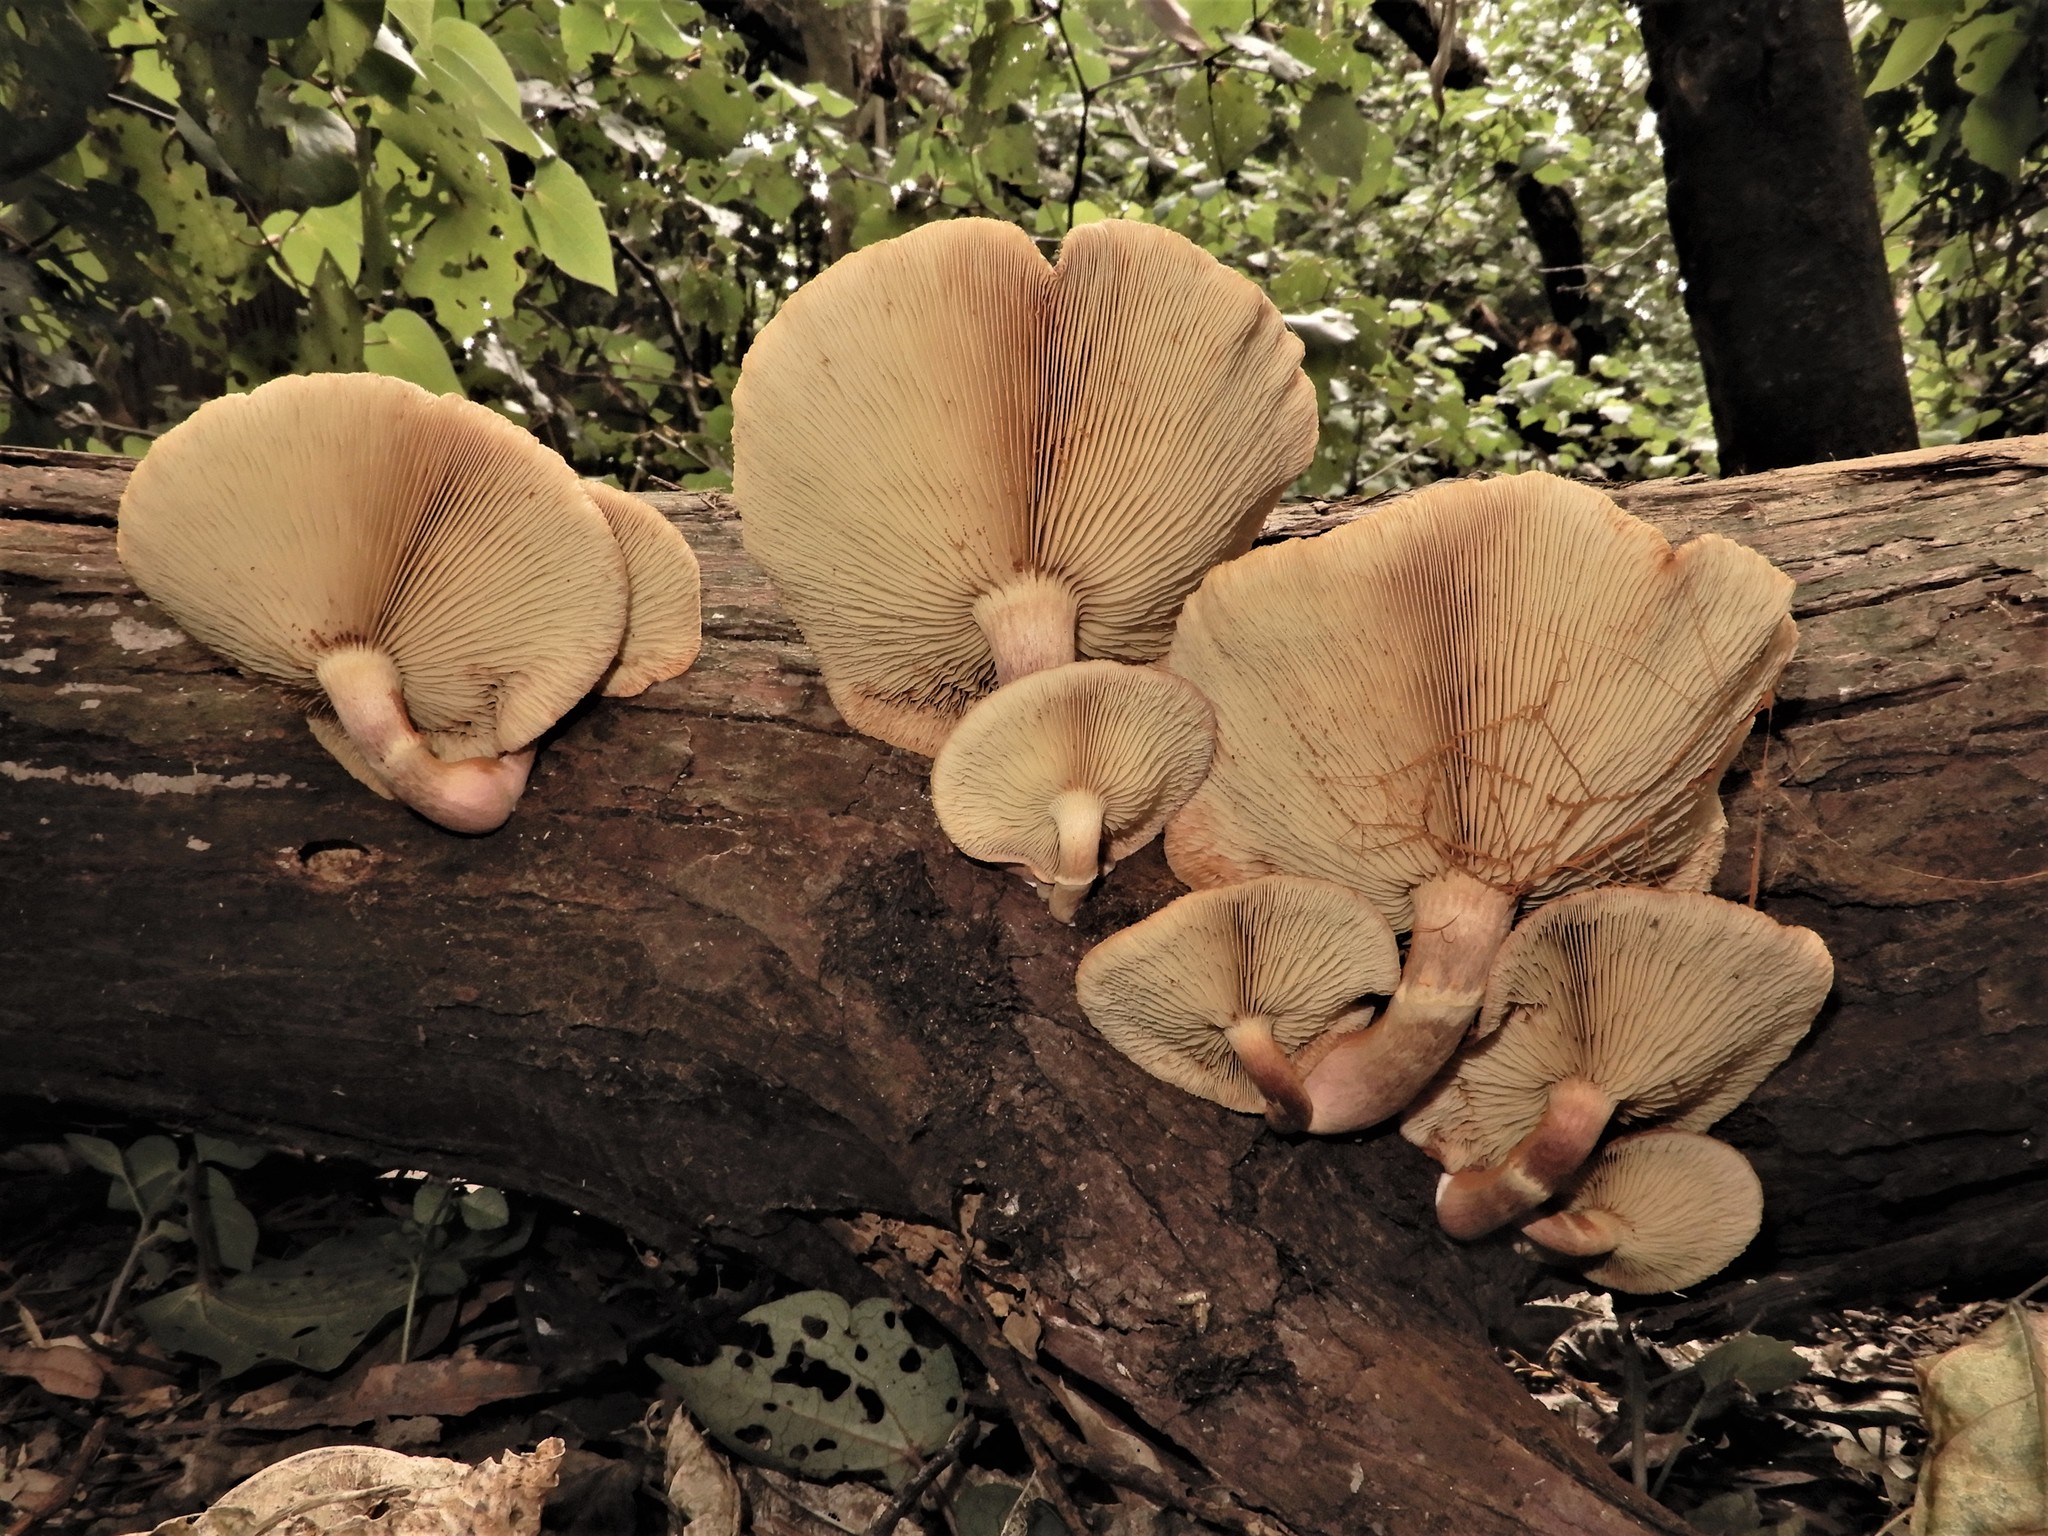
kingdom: Fungi
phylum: Basidiomycota
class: Agaricomycetes
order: Agaricales
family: Hymenogastraceae
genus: Gymnopilus
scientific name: Gymnopilus purpuratus
